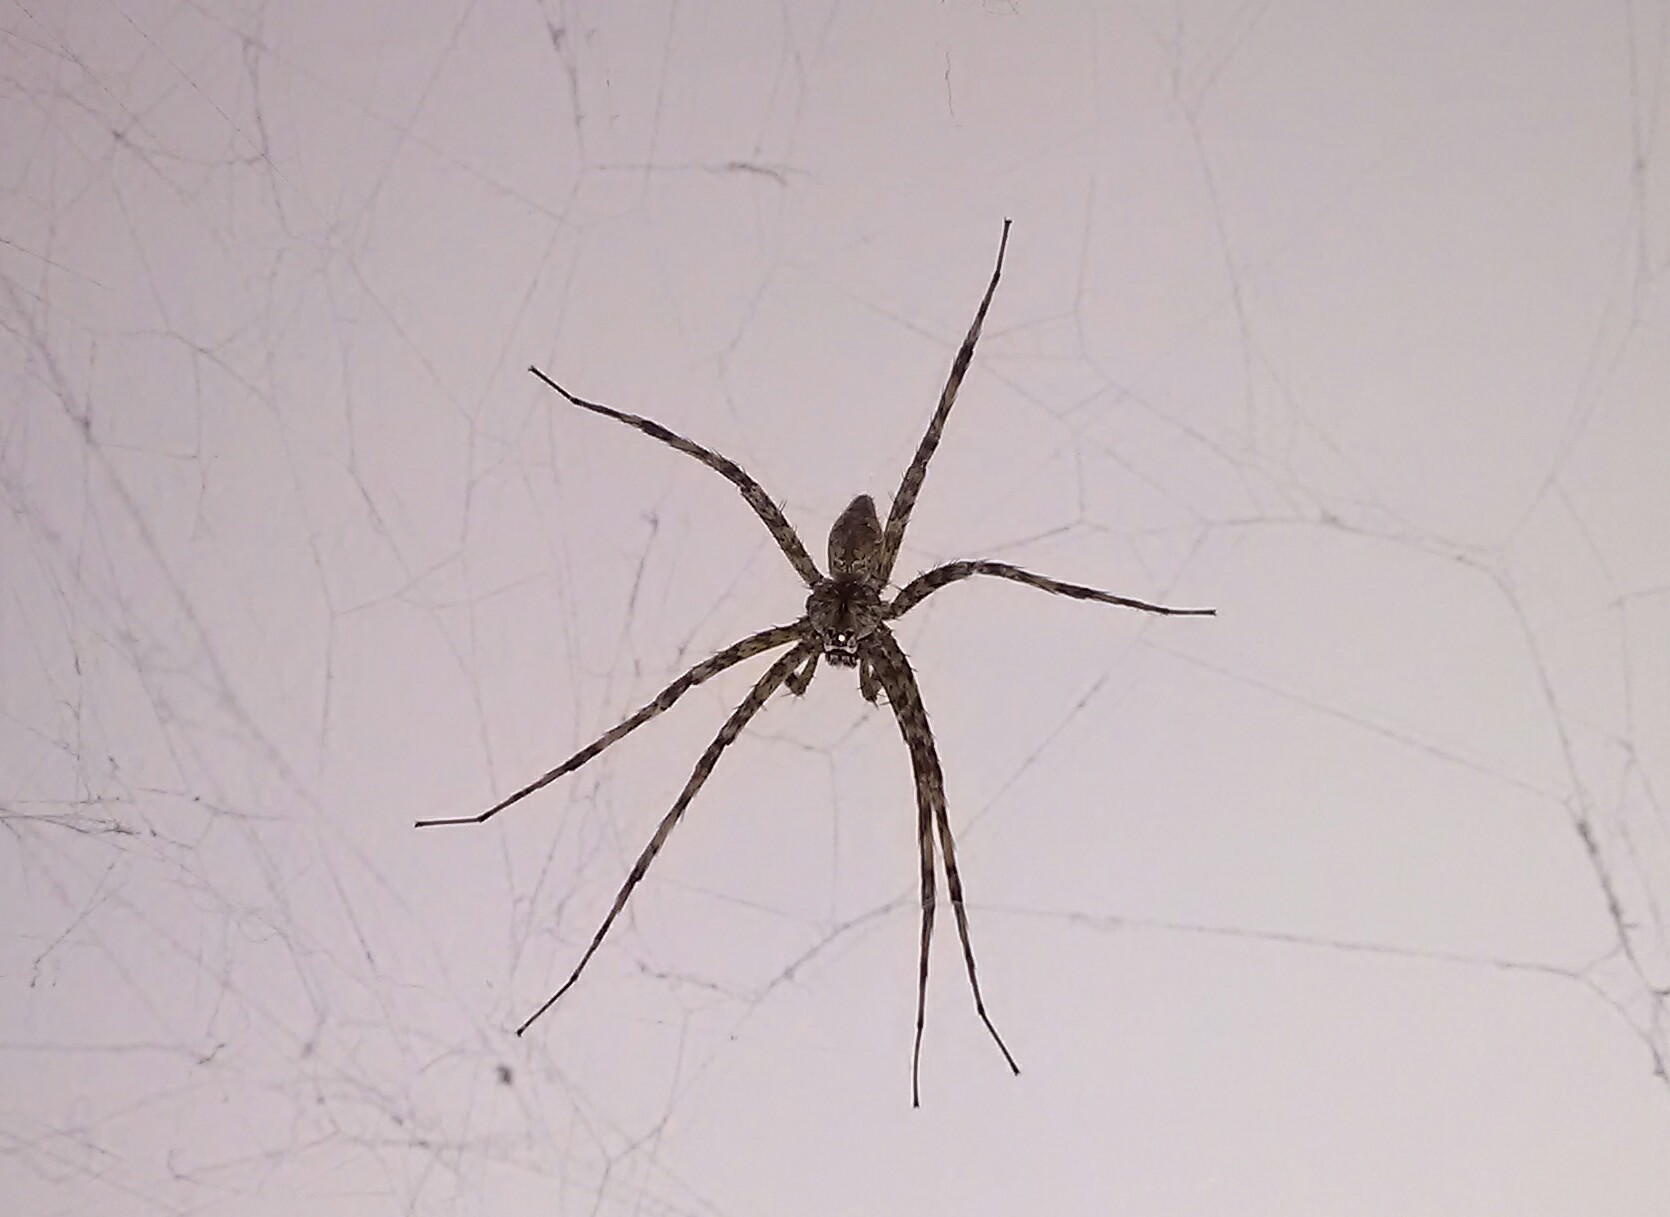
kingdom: Animalia
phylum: Arthropoda
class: Arachnida
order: Araneae
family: Pisauridae
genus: Dolomedes
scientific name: Dolomedes albineus
